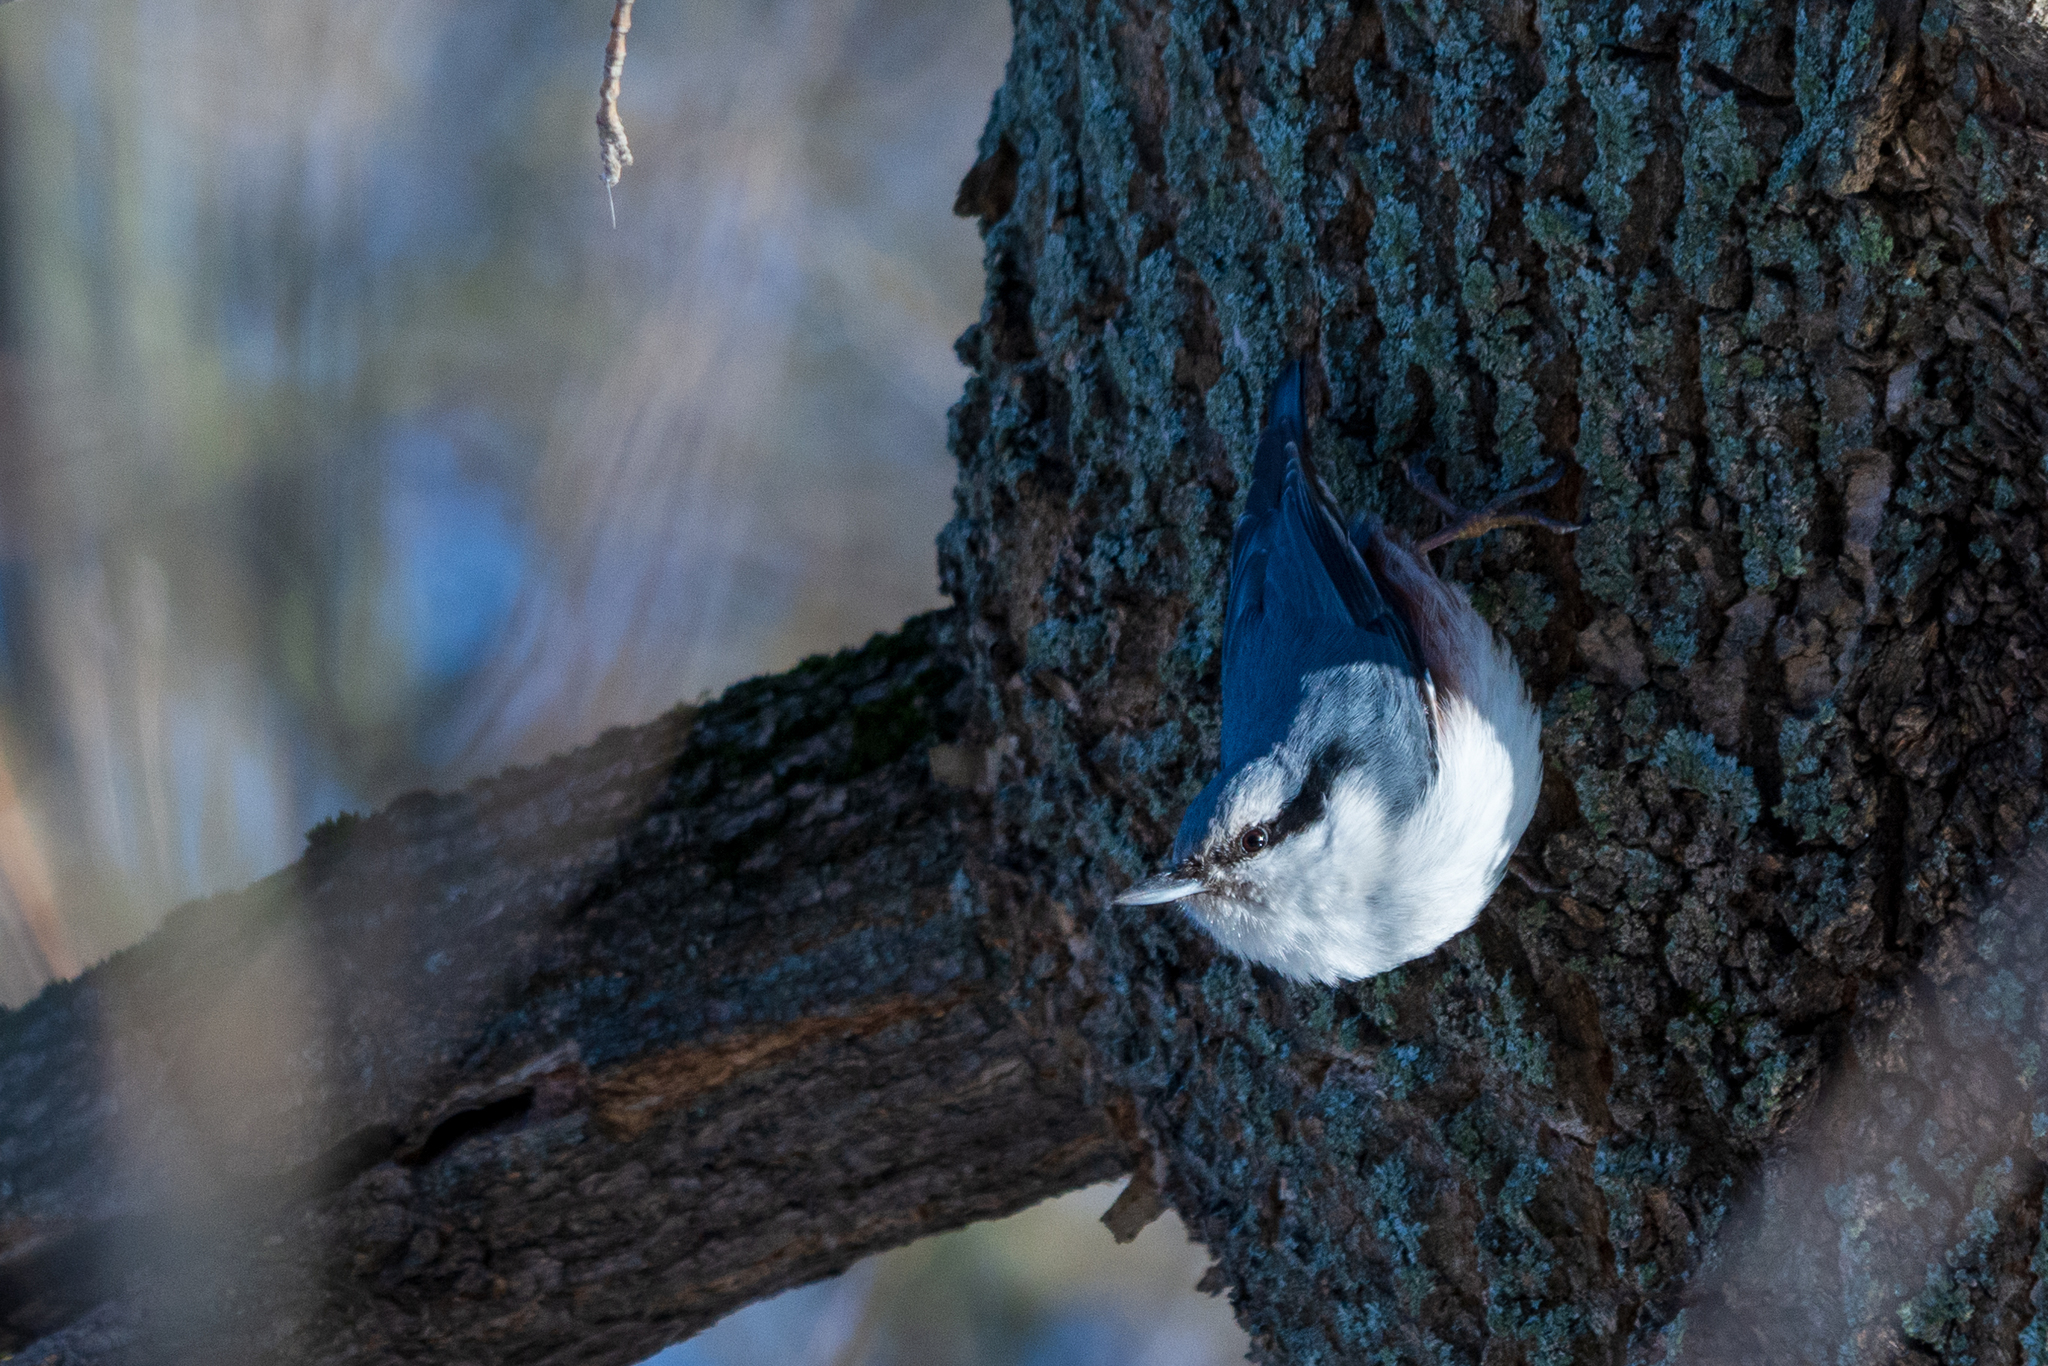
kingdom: Animalia
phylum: Chordata
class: Aves
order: Passeriformes
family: Sittidae
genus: Sitta
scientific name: Sitta europaea
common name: Eurasian nuthatch
